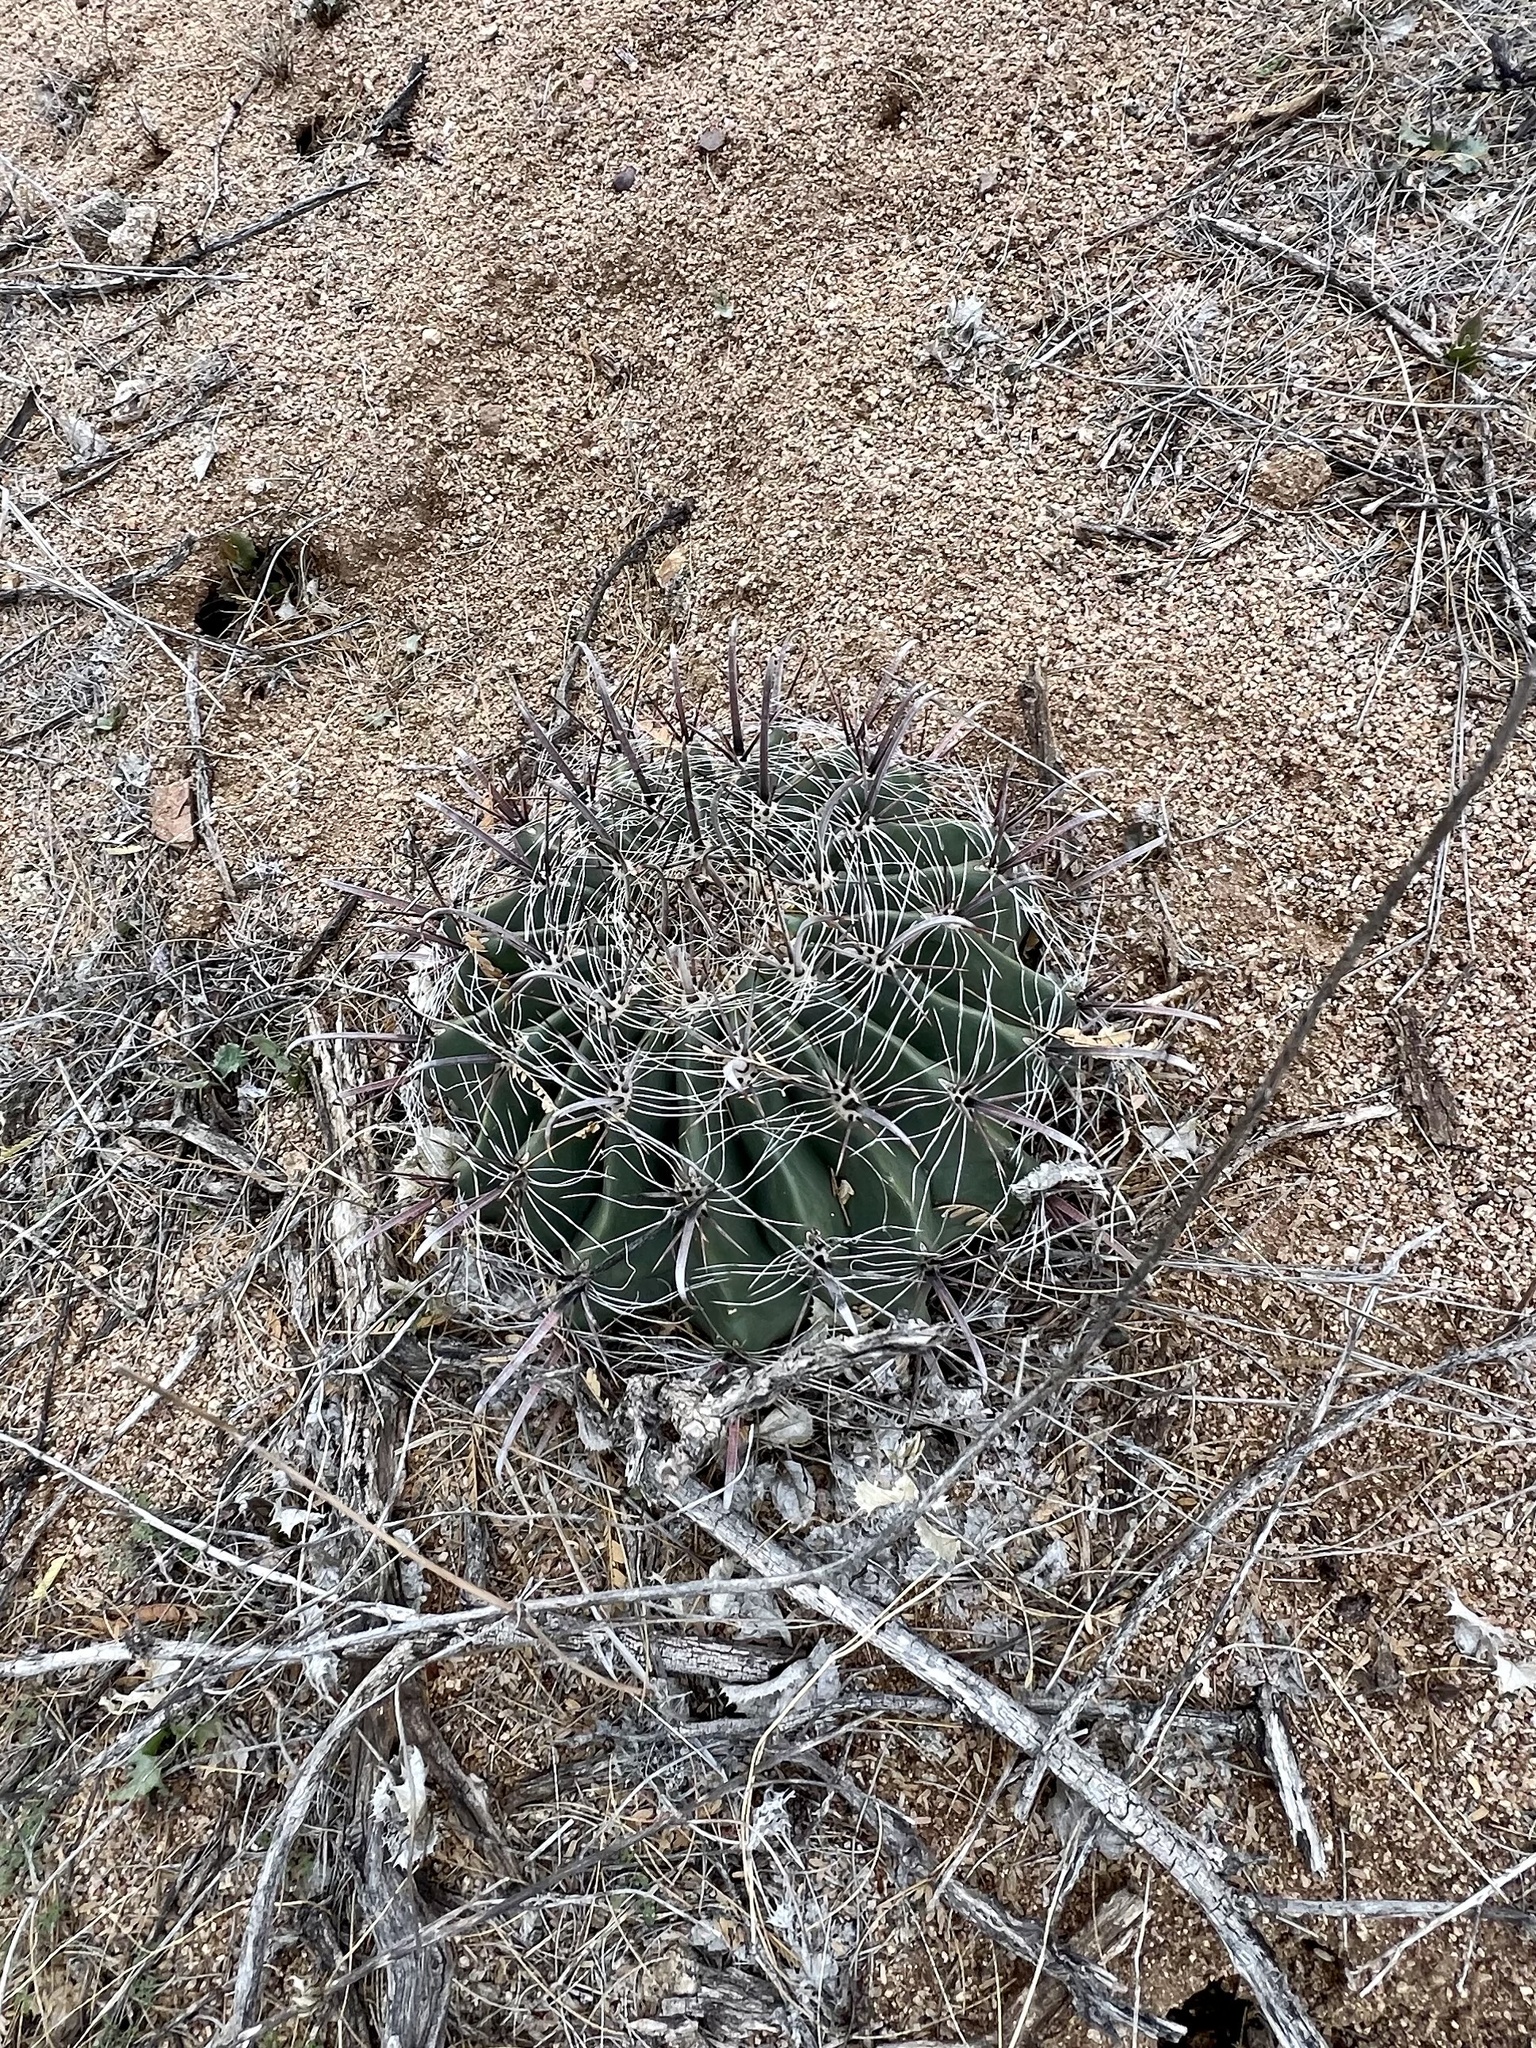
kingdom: Plantae
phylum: Tracheophyta
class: Magnoliopsida
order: Caryophyllales
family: Cactaceae
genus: Ferocactus
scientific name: Ferocactus wislizeni
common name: Candy barrel cactus
